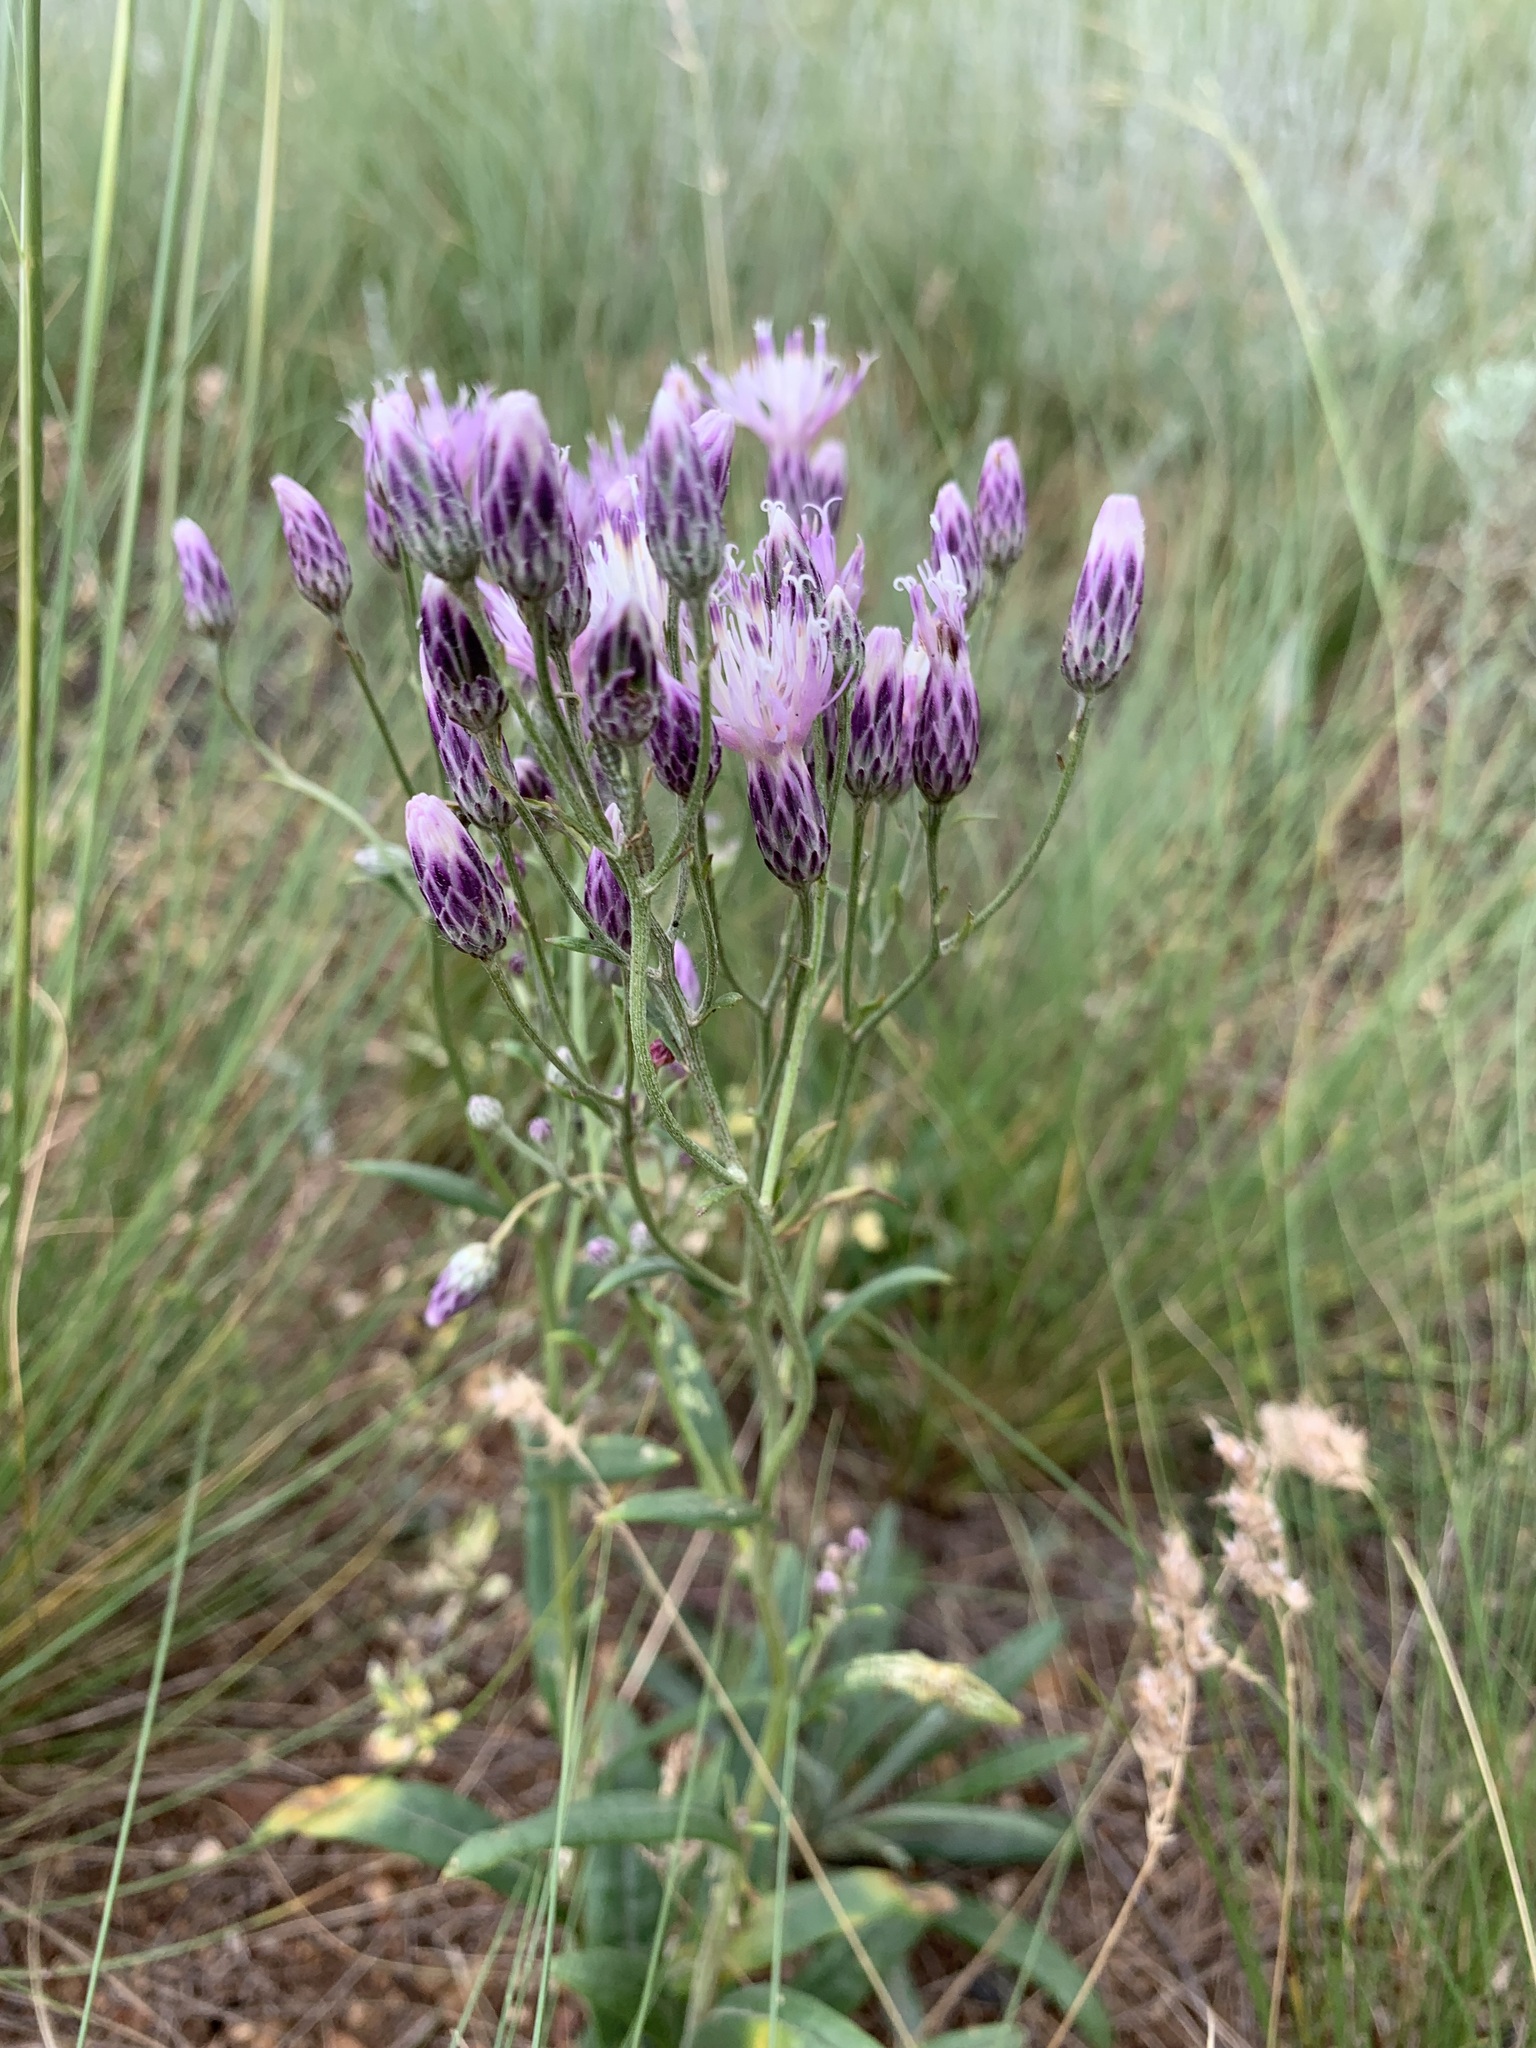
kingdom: Plantae
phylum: Tracheophyta
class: Magnoliopsida
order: Asterales
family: Asteraceae
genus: Jurinea
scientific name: Jurinea multiflora
